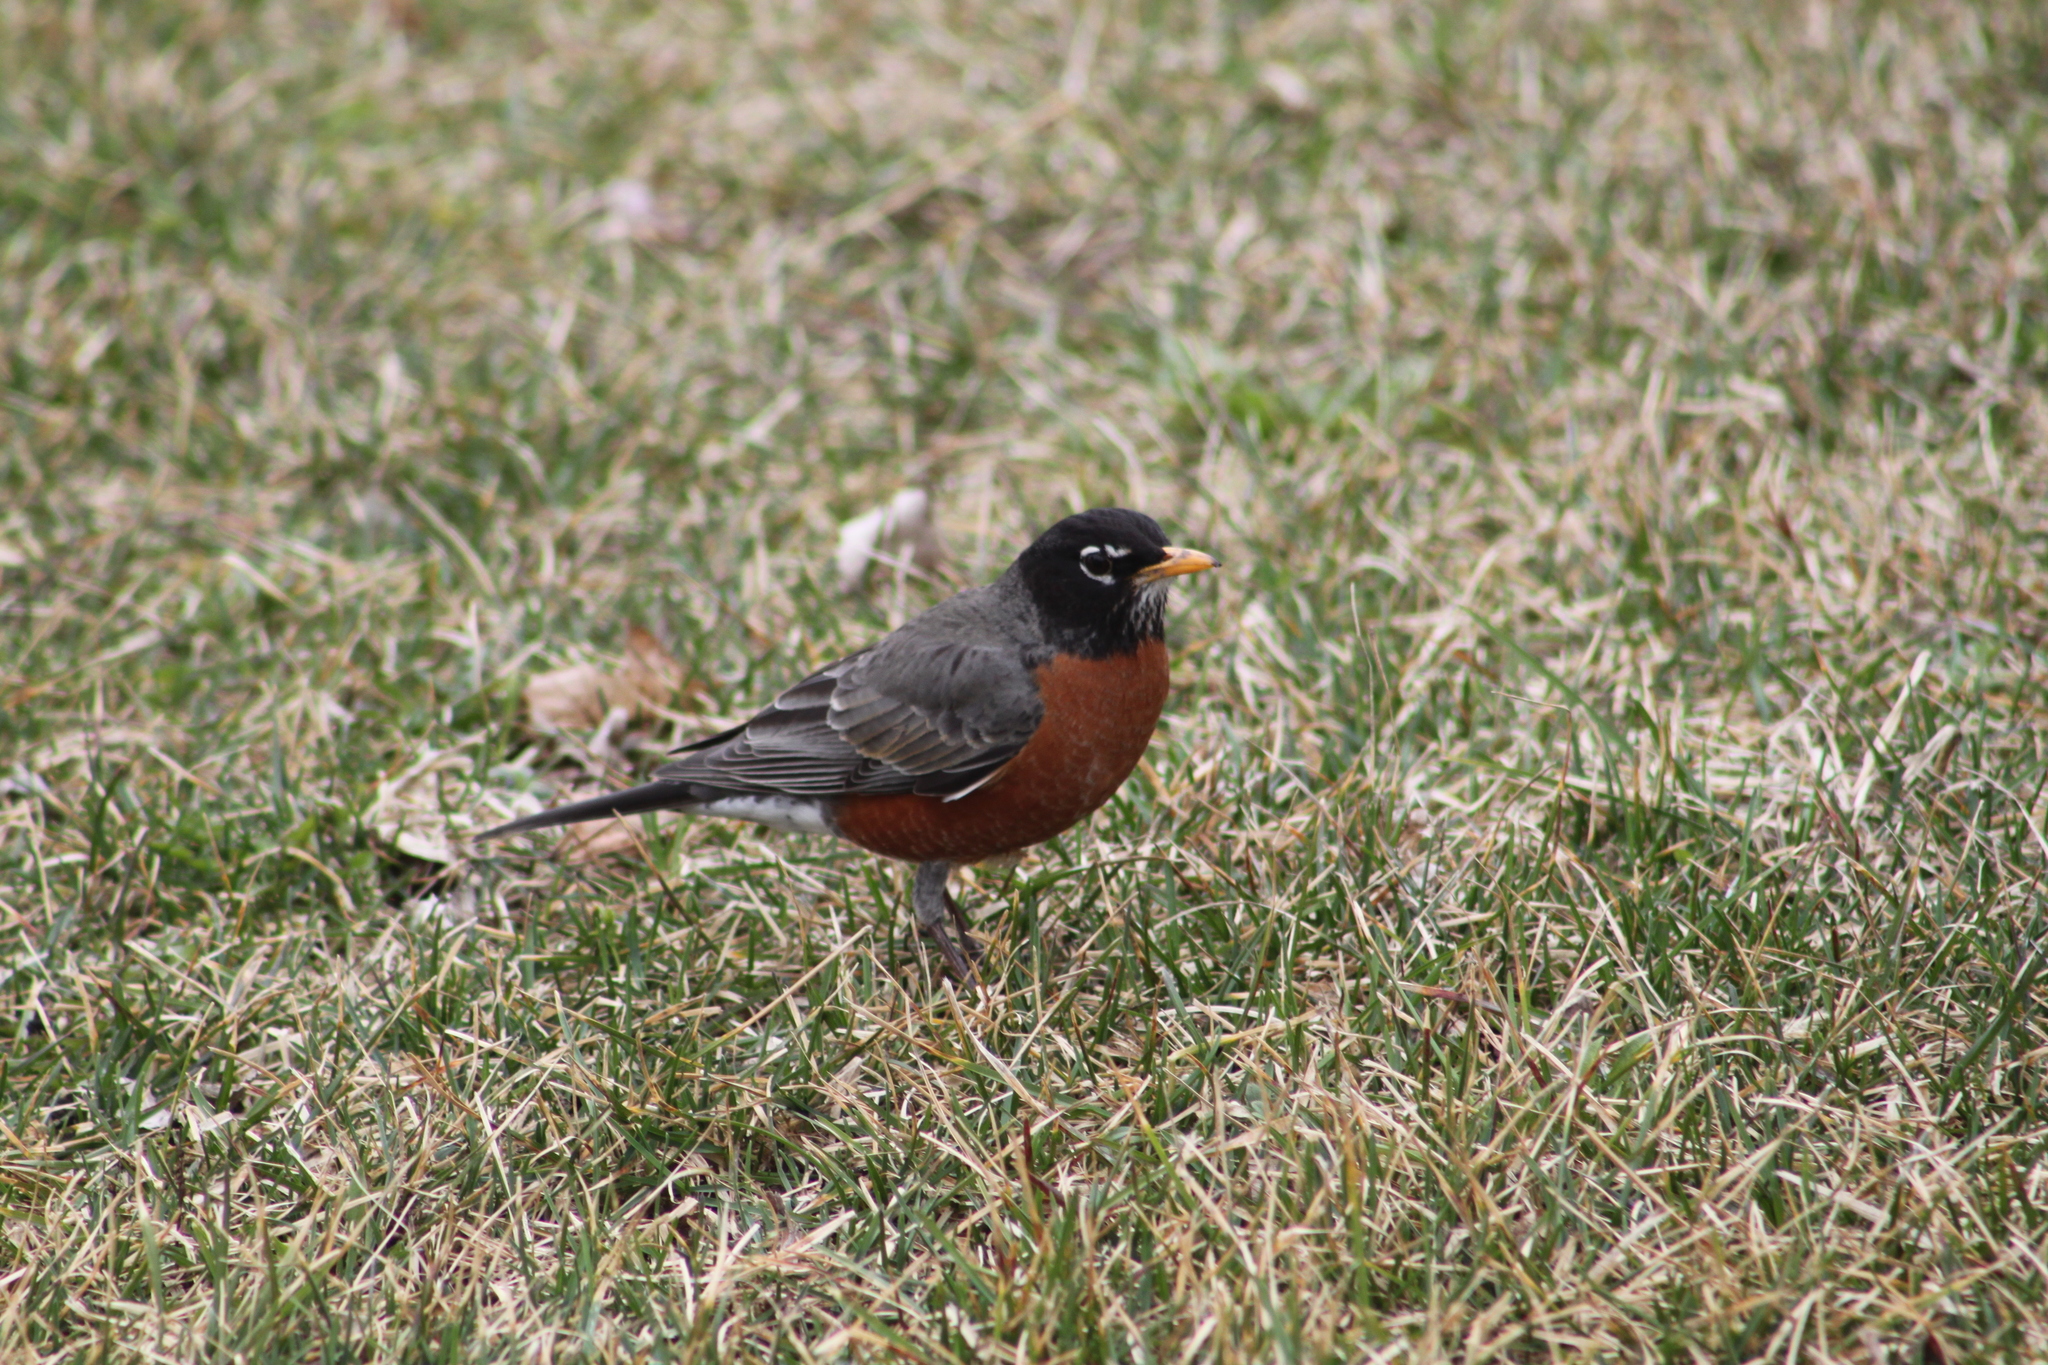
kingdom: Animalia
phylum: Chordata
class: Aves
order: Passeriformes
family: Turdidae
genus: Turdus
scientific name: Turdus migratorius
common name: American robin
